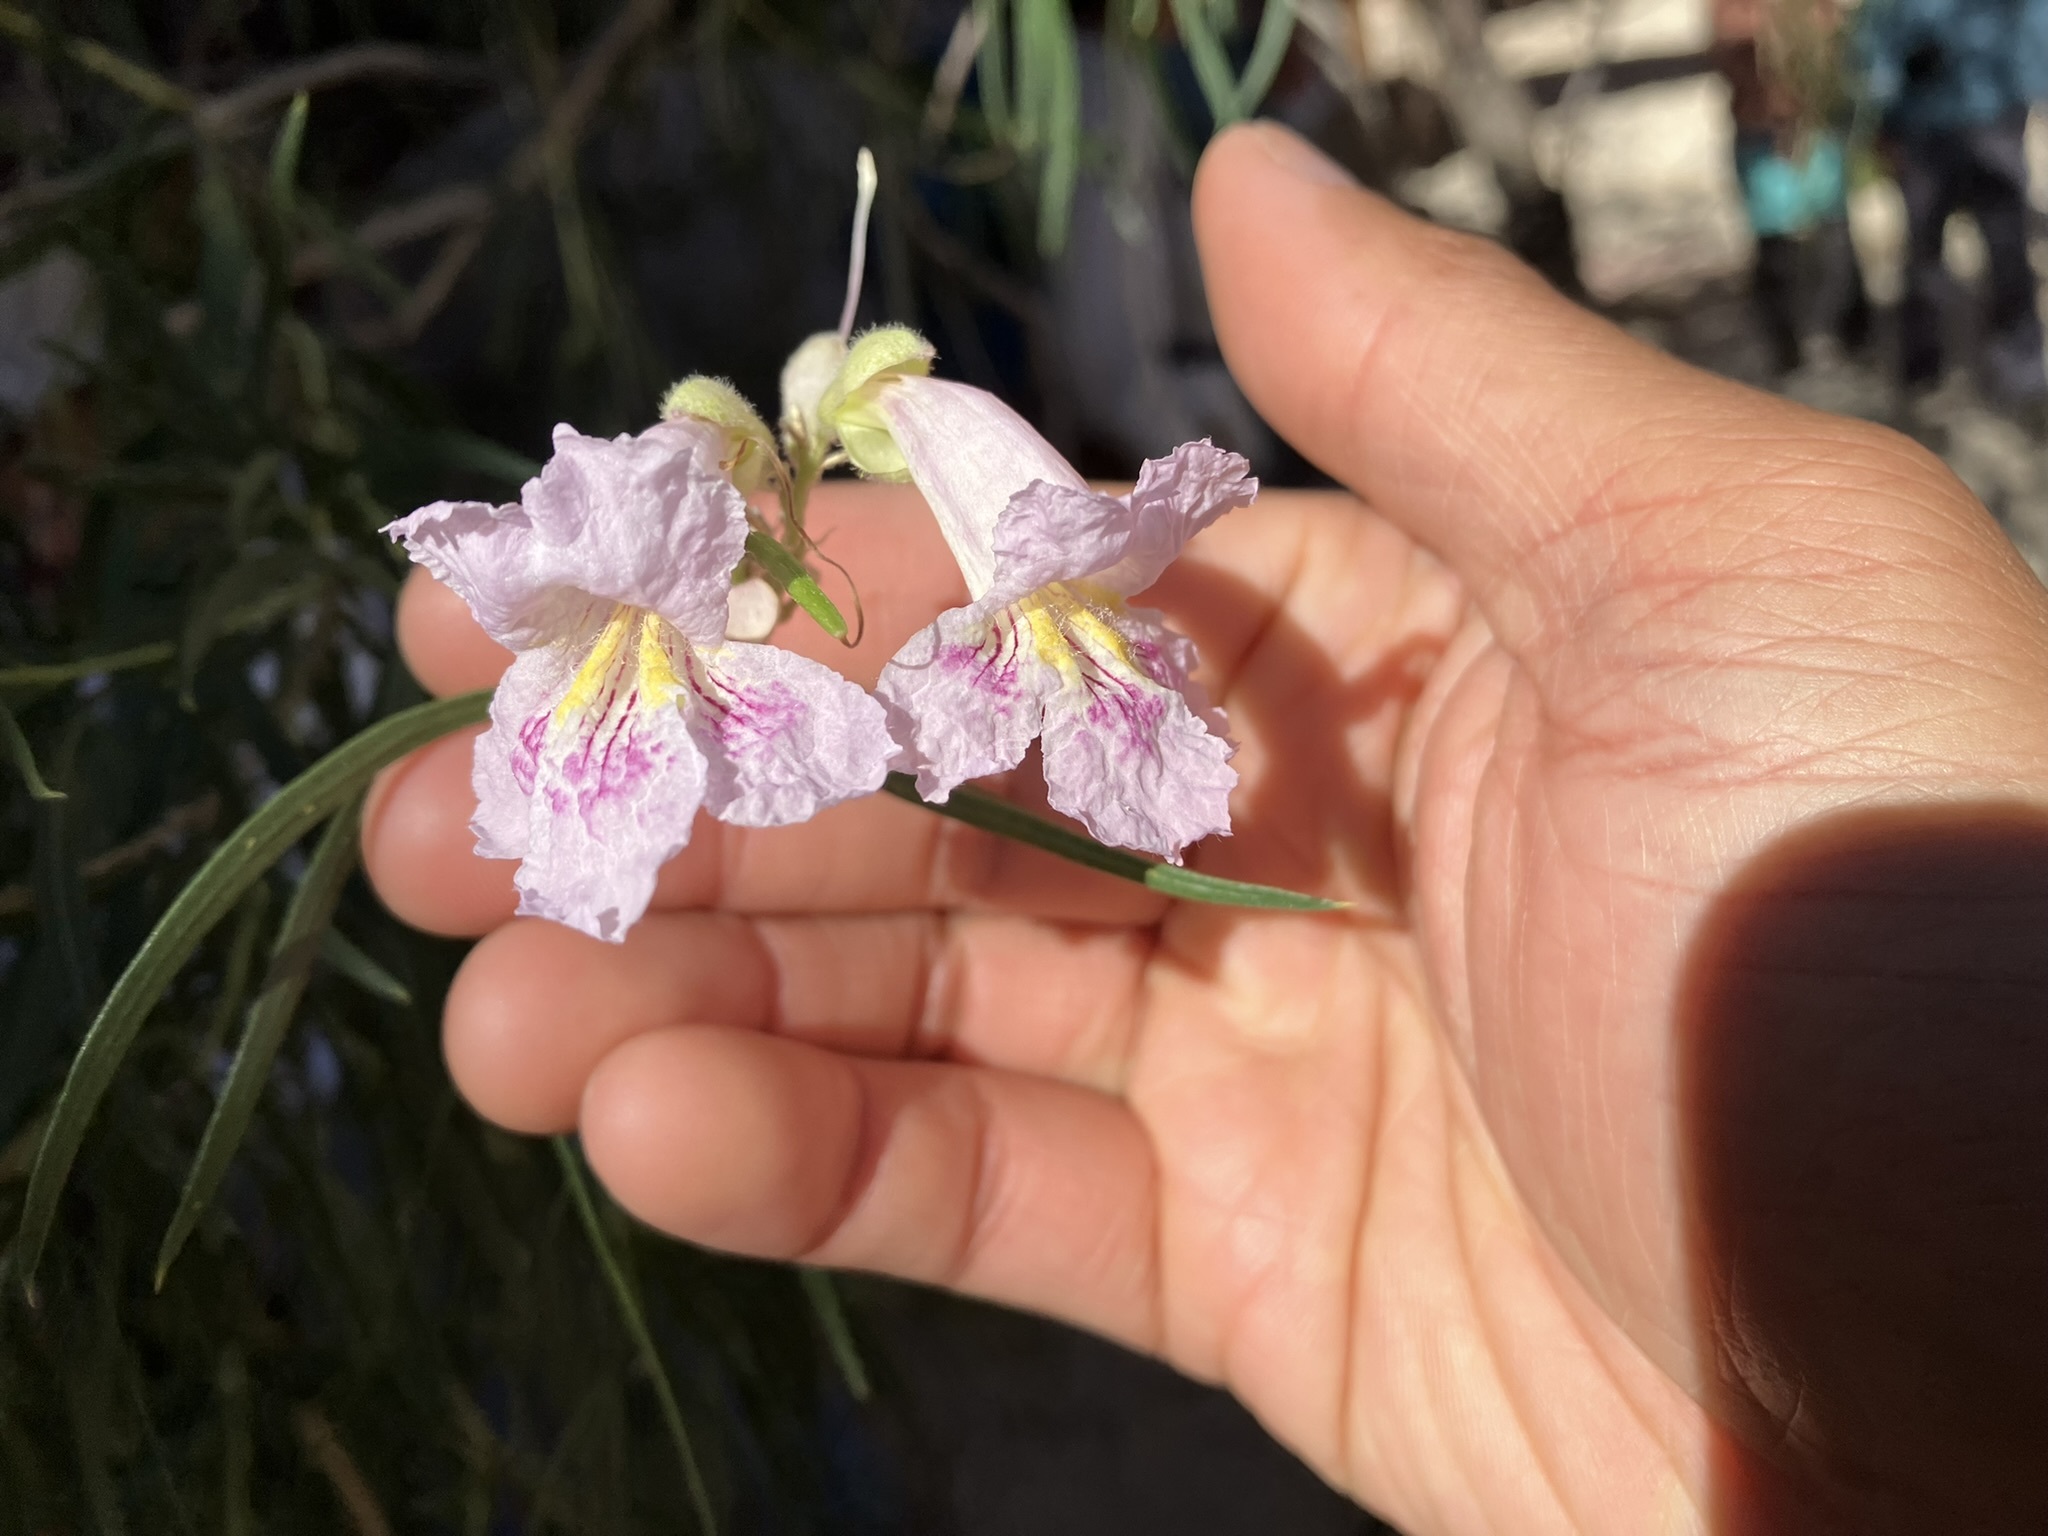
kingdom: Plantae
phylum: Tracheophyta
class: Magnoliopsida
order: Lamiales
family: Bignoniaceae
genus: Chilopsis
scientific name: Chilopsis linearis
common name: Desert-willow
